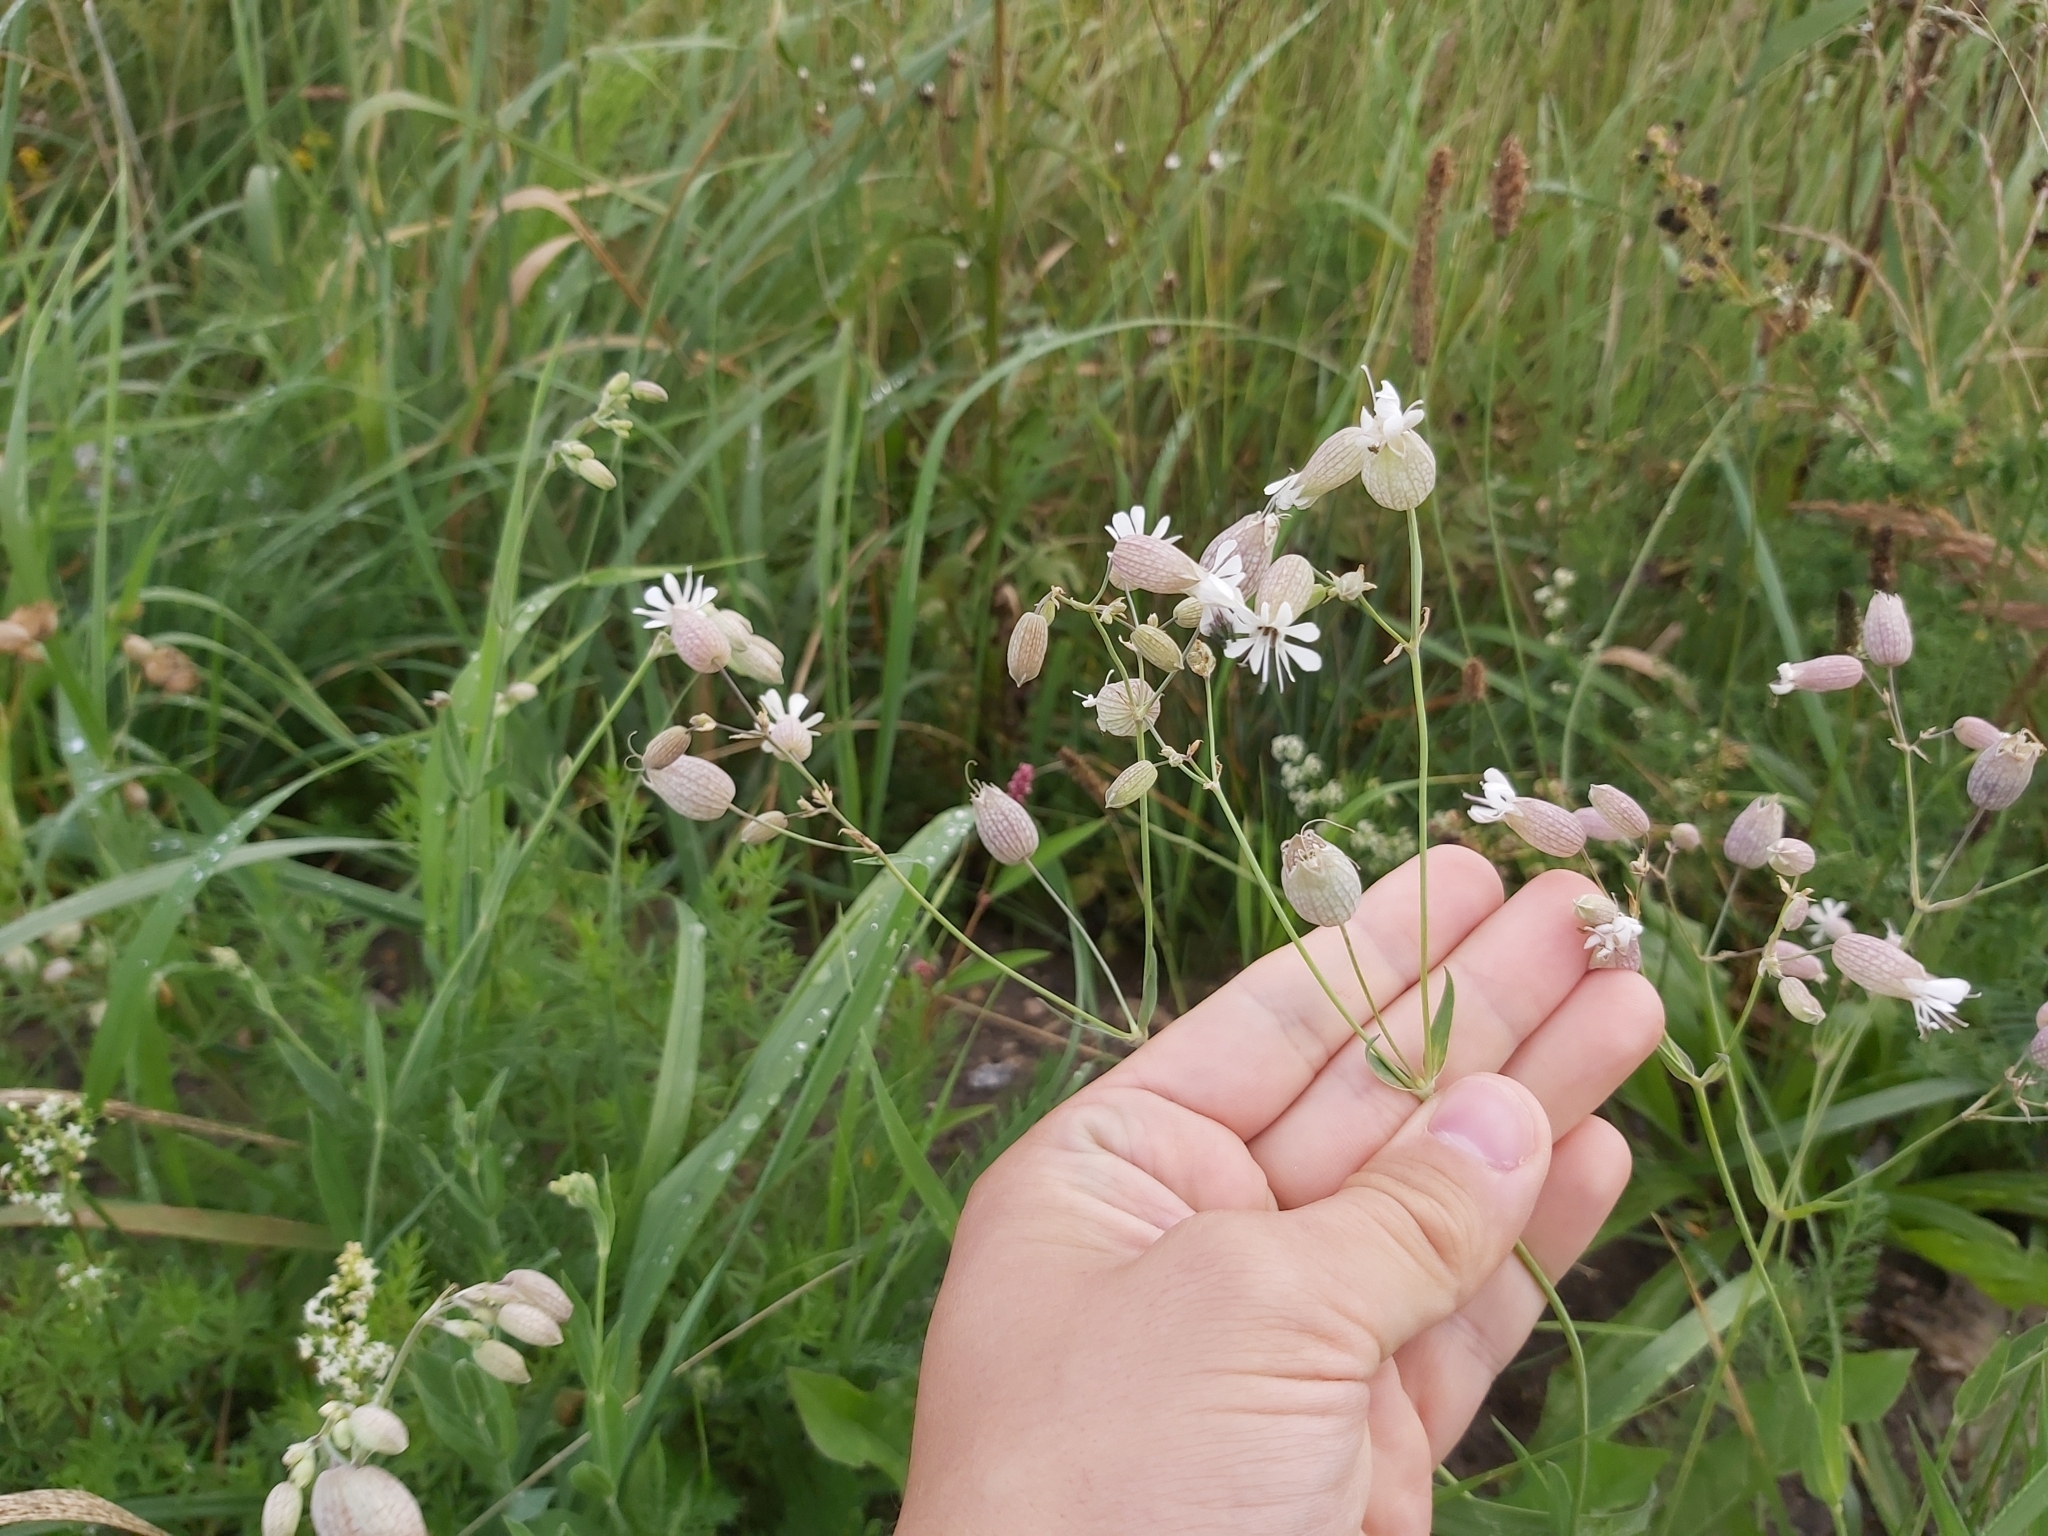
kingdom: Plantae
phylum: Tracheophyta
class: Magnoliopsida
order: Caryophyllales
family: Caryophyllaceae
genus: Silene
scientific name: Silene vulgaris
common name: Bladder campion
